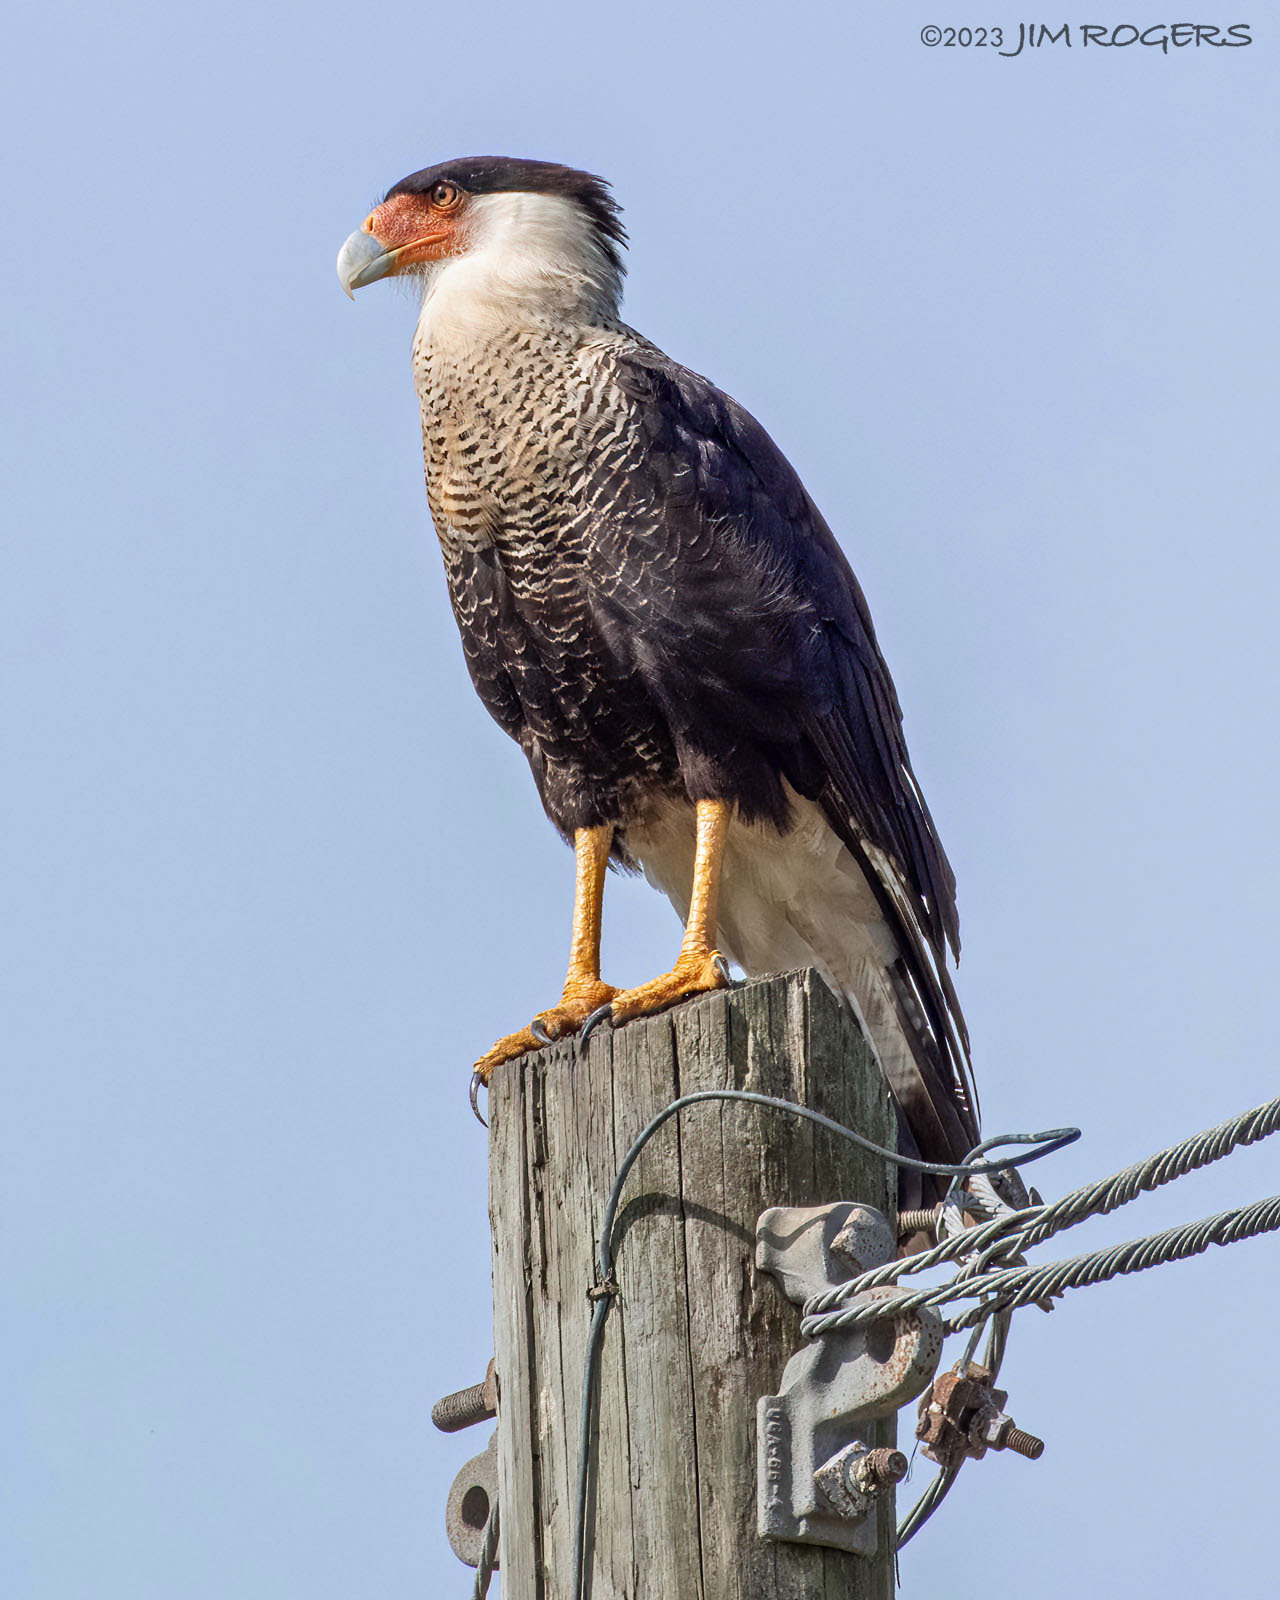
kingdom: Animalia
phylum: Chordata
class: Aves
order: Falconiformes
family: Falconidae
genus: Caracara
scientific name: Caracara plancus
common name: Southern caracara
